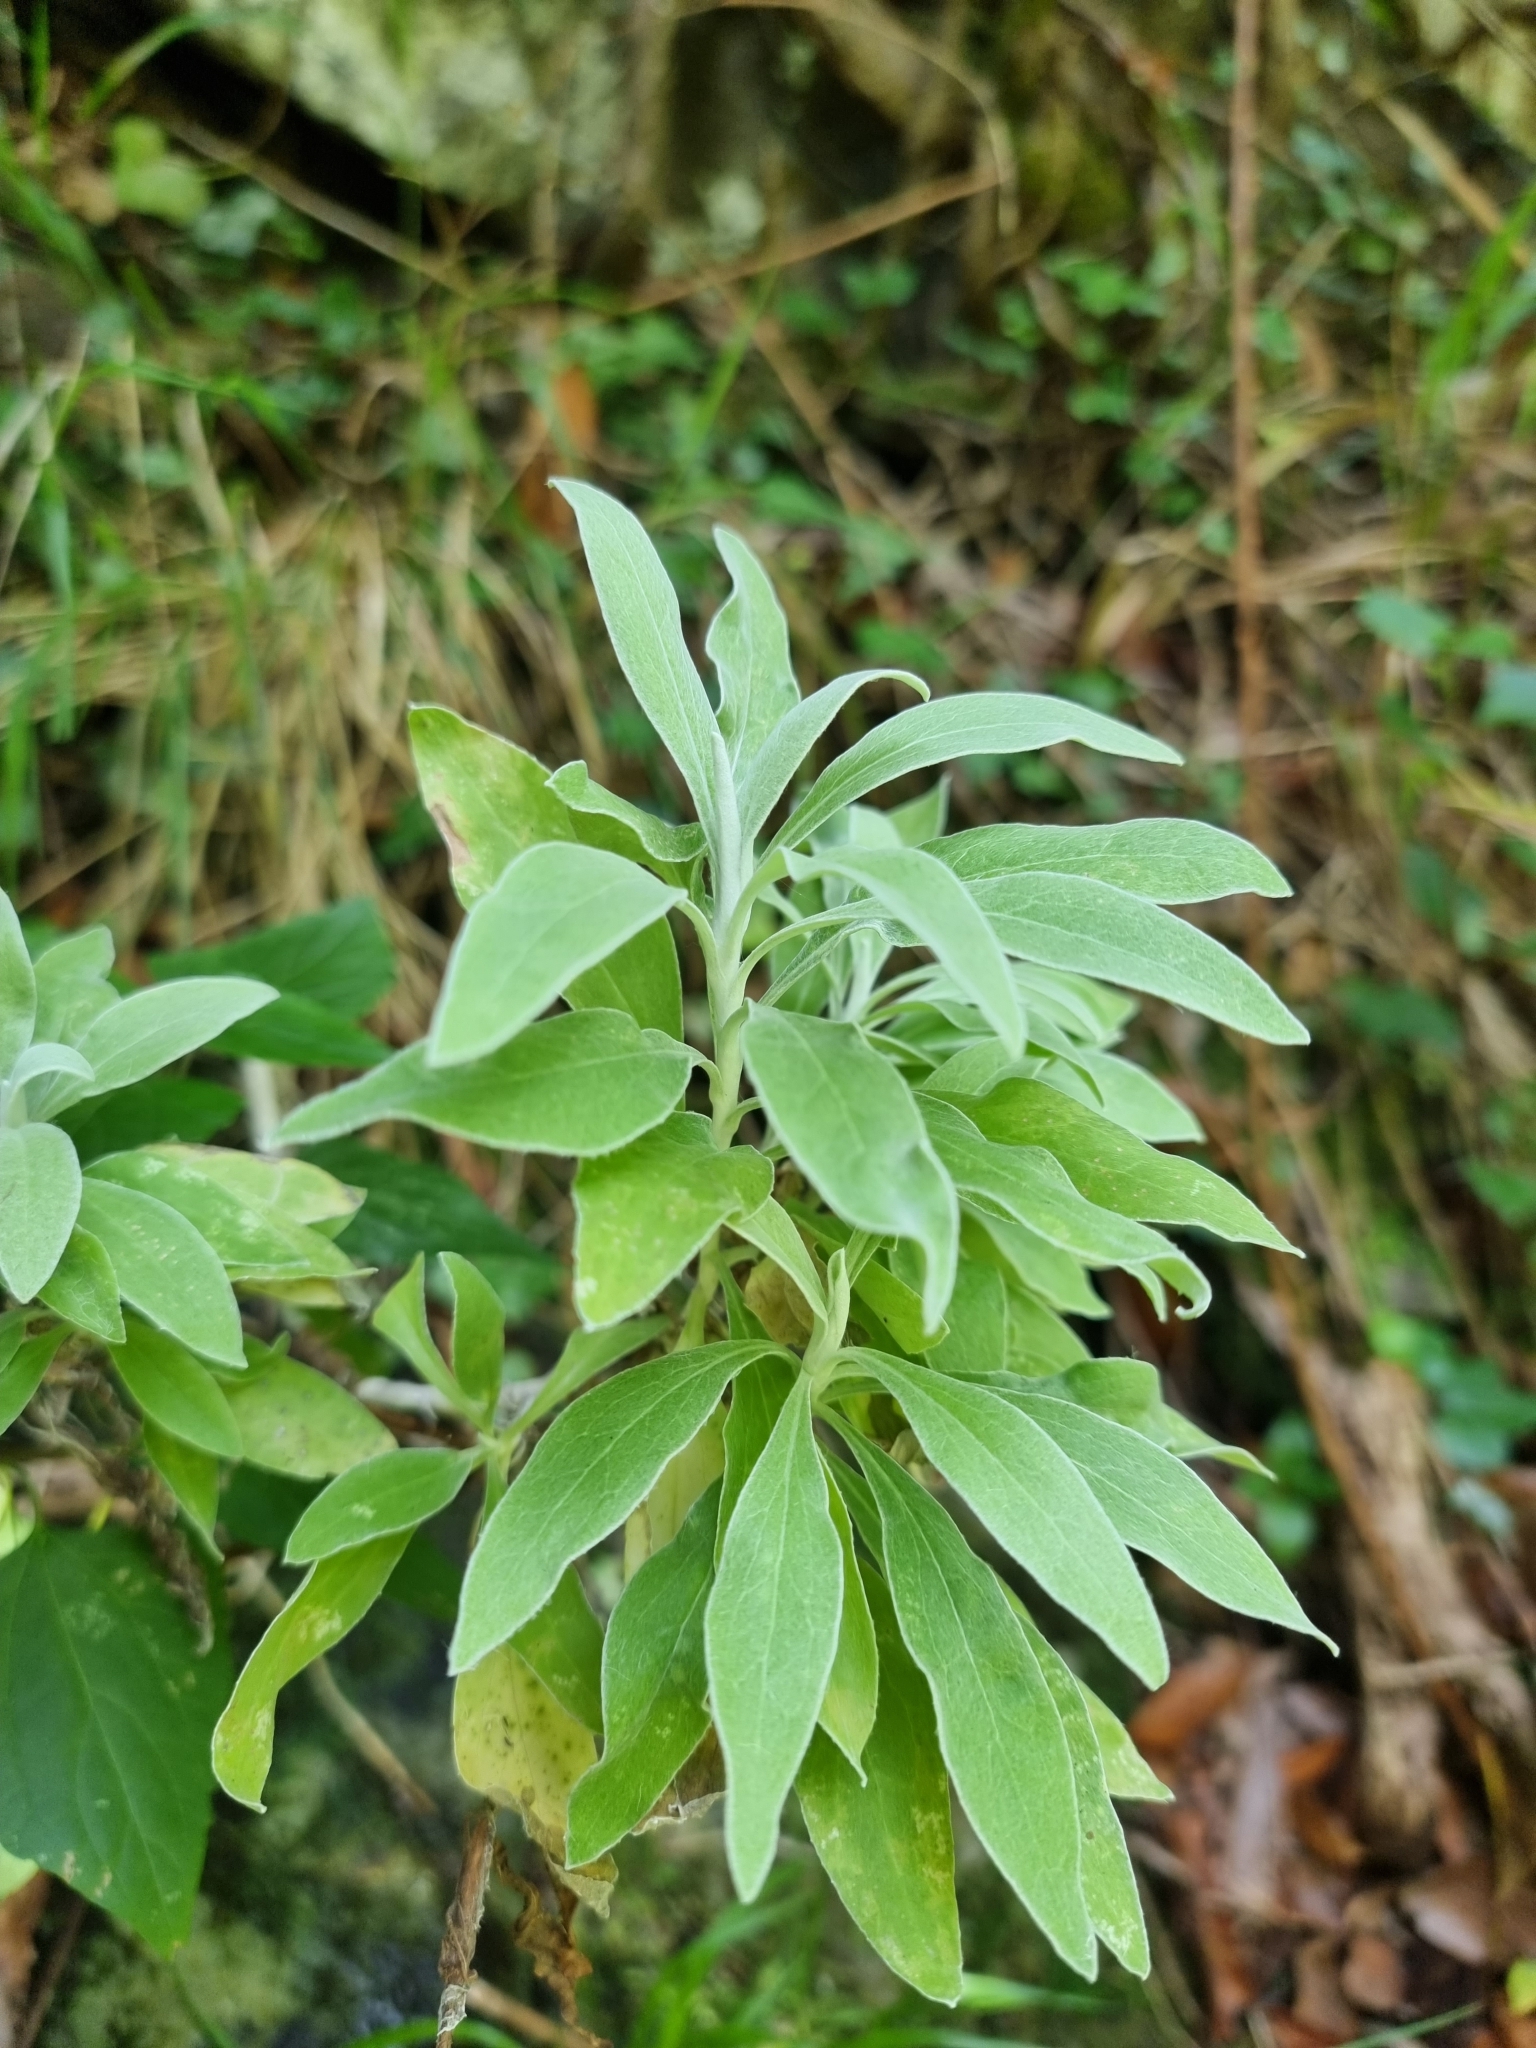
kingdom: Plantae
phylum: Tracheophyta
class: Magnoliopsida
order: Asterales
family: Asteraceae
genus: Helichrysum
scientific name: Helichrysum melaleucum
